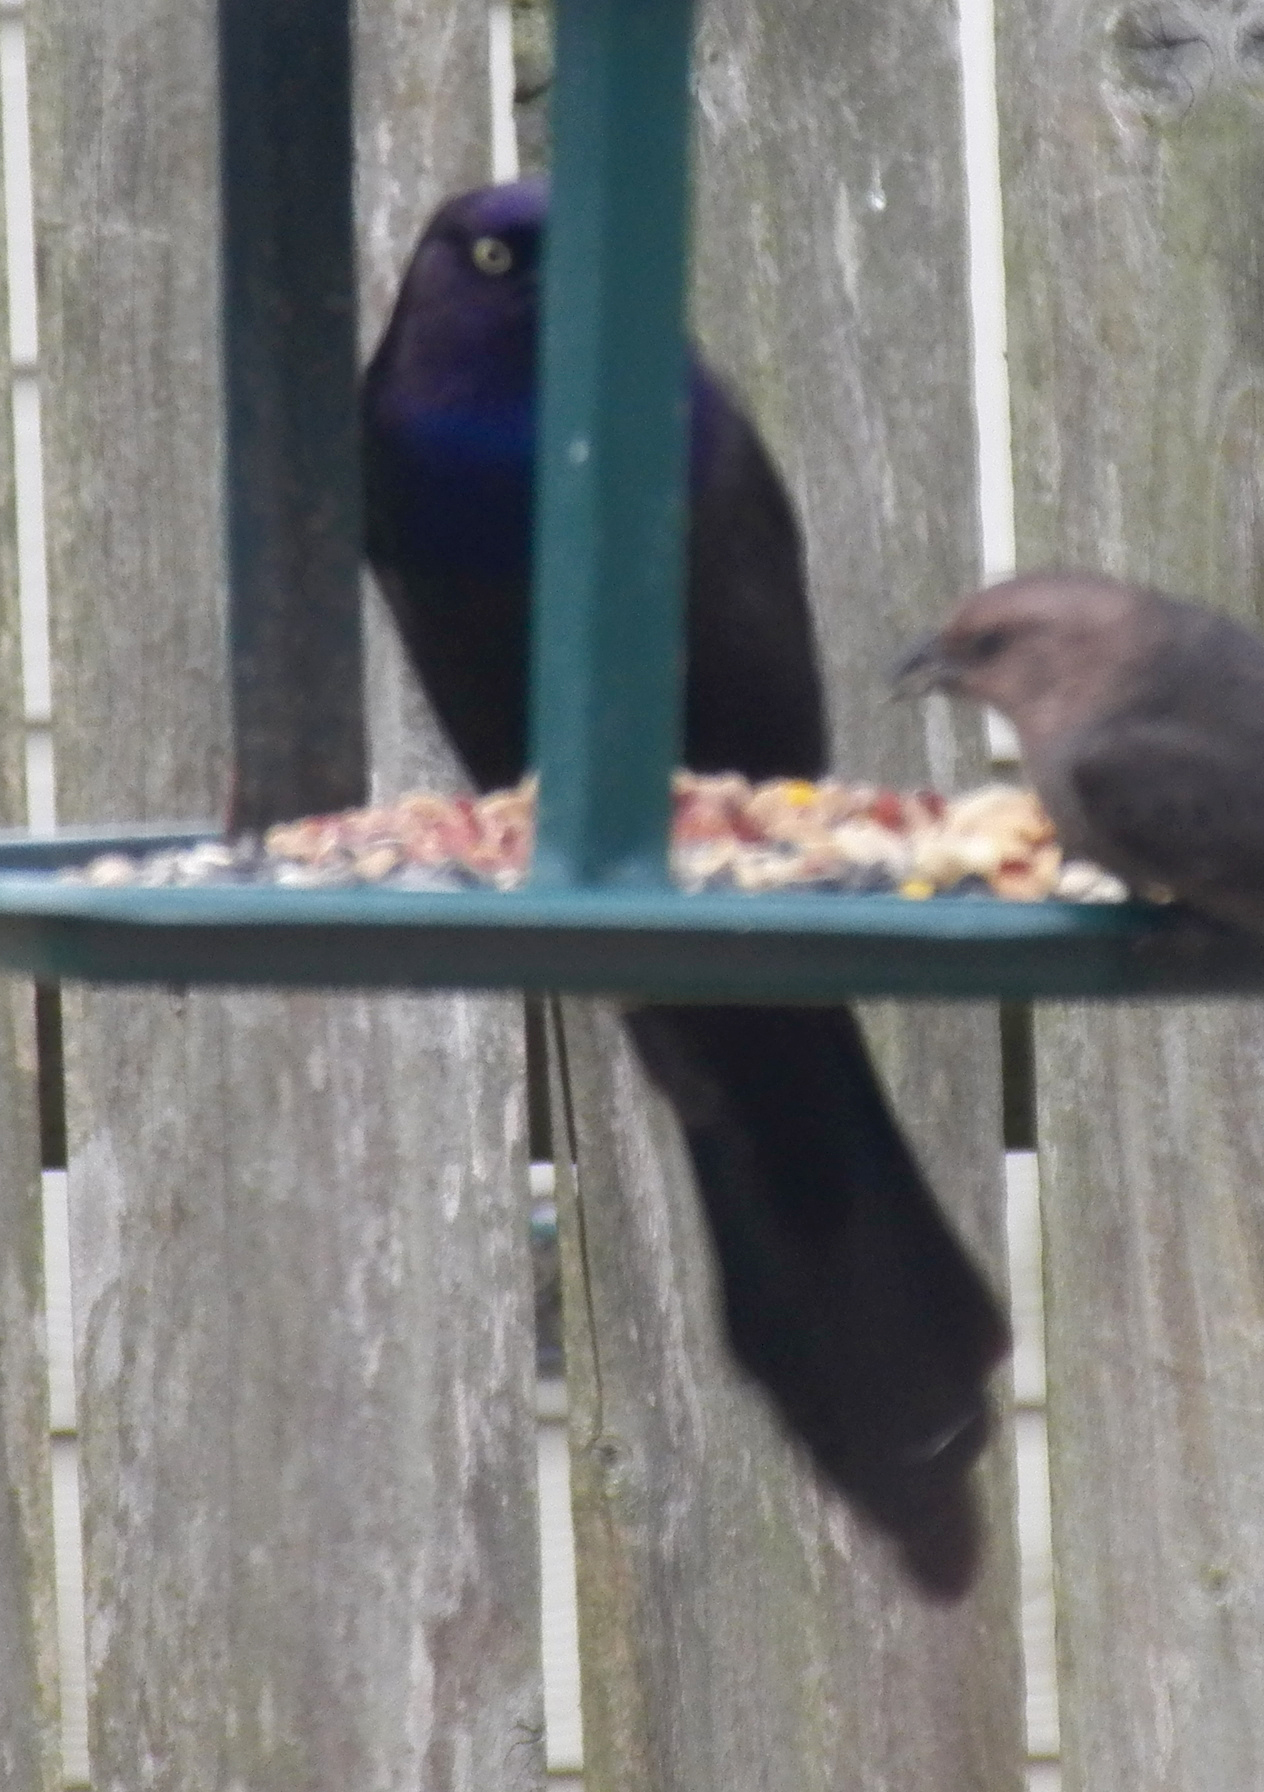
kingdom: Animalia
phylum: Chordata
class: Aves
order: Passeriformes
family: Icteridae
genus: Quiscalus
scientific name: Quiscalus mexicanus
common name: Great-tailed grackle
